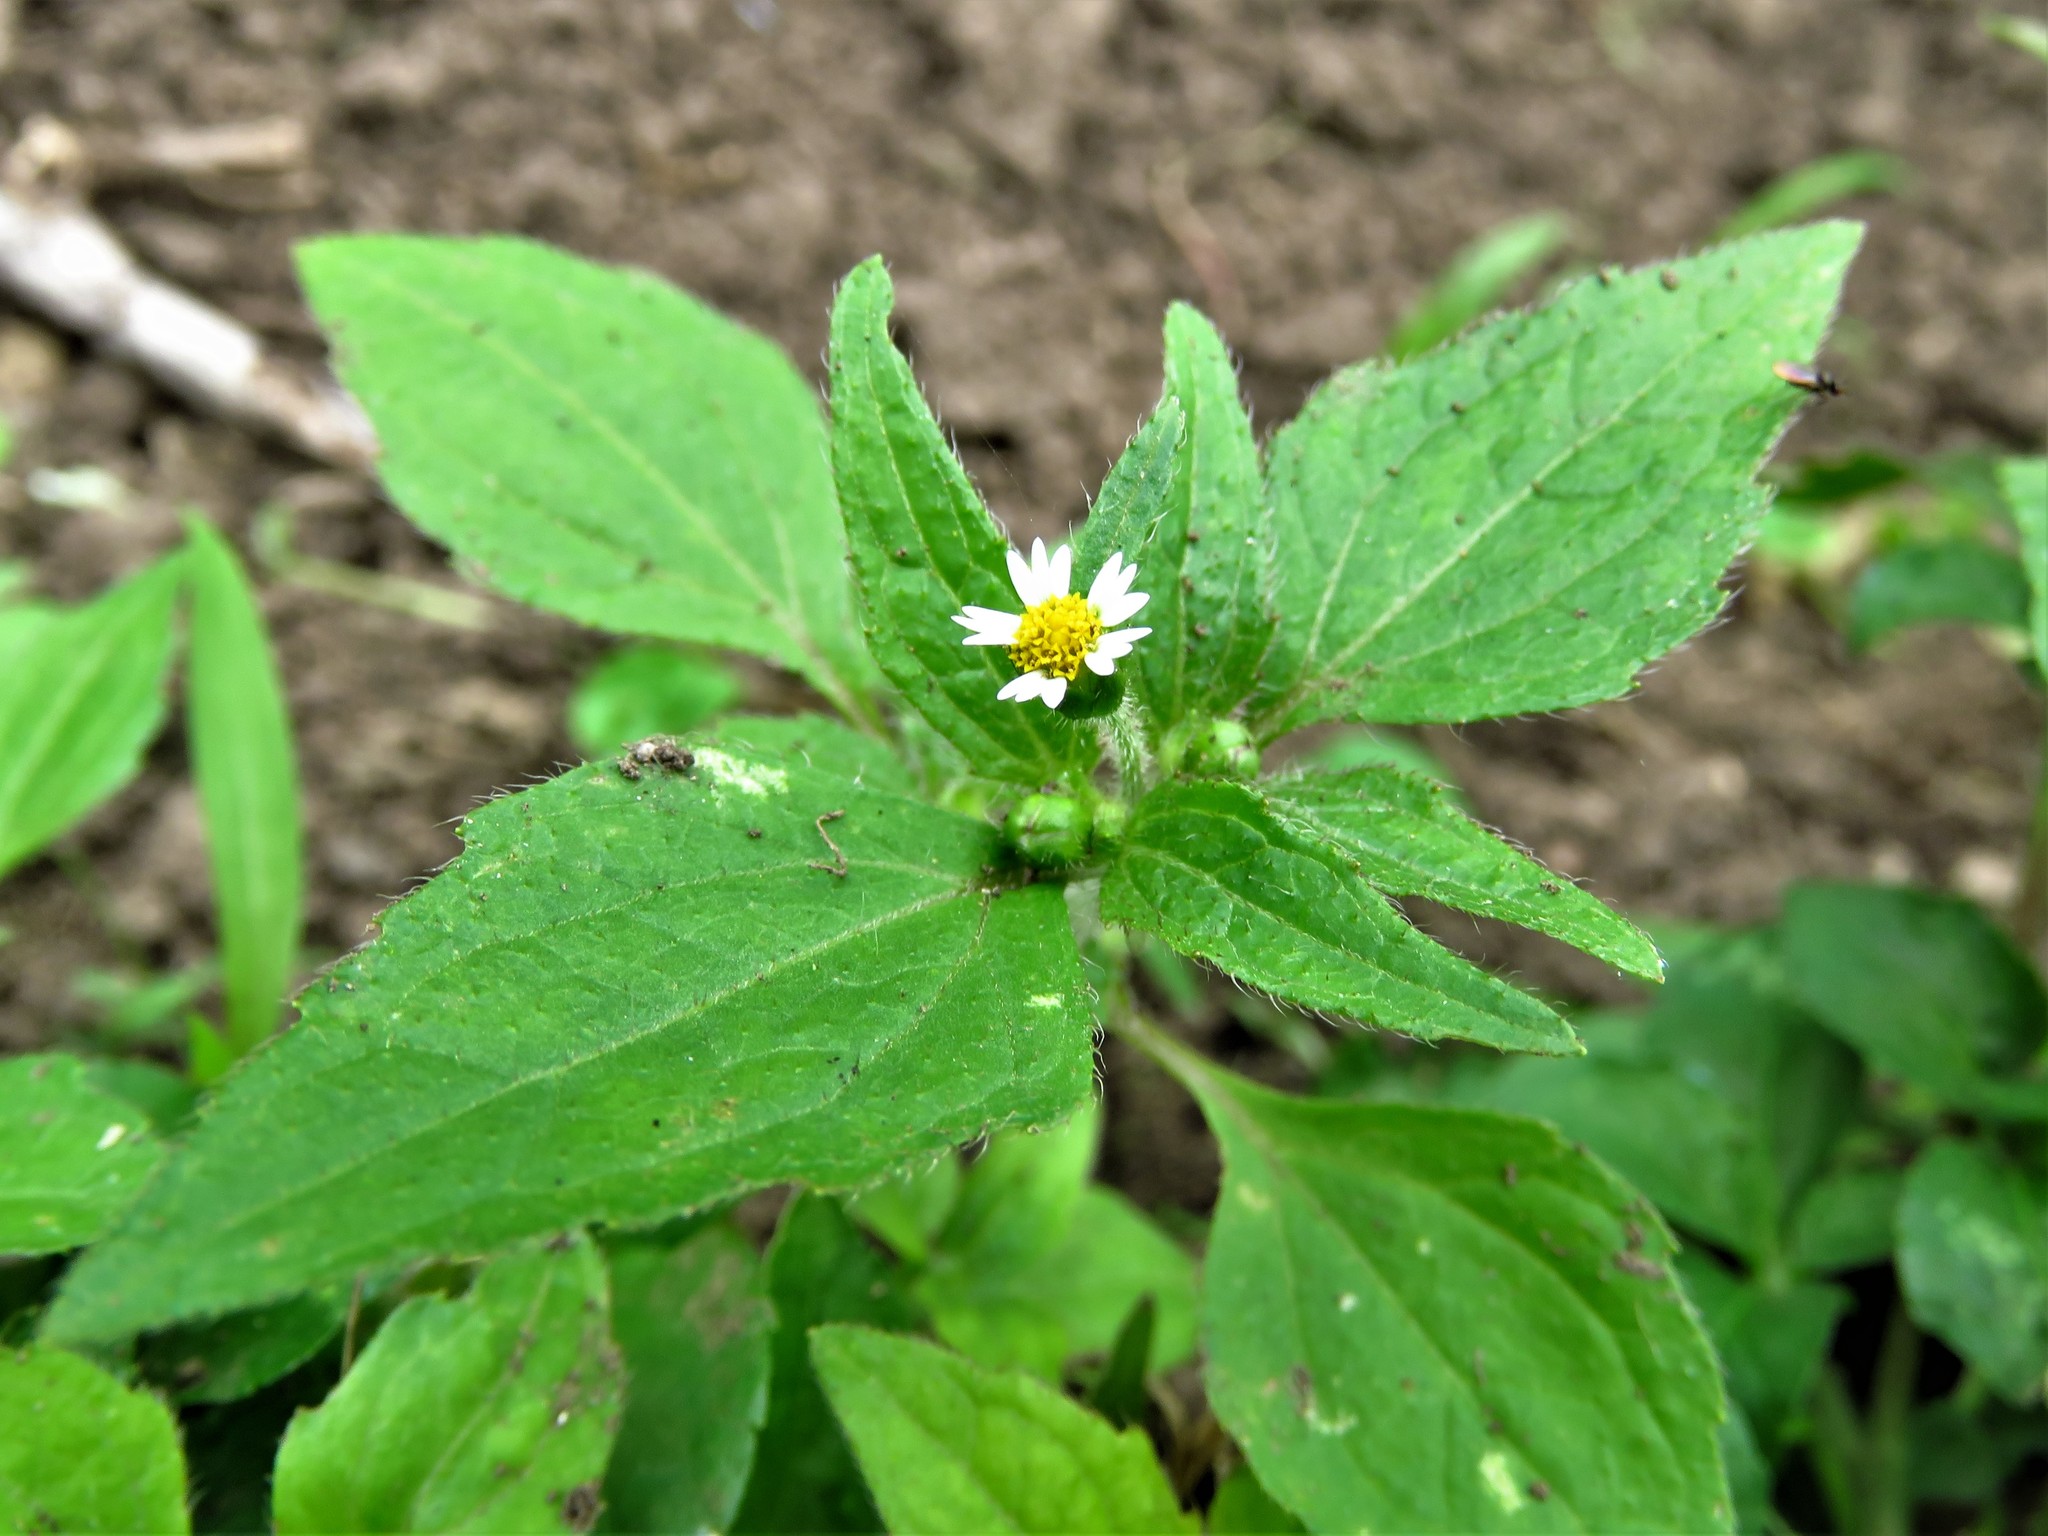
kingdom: Plantae
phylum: Tracheophyta
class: Magnoliopsida
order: Asterales
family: Asteraceae
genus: Galinsoga
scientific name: Galinsoga quadriradiata
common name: Shaggy soldier
